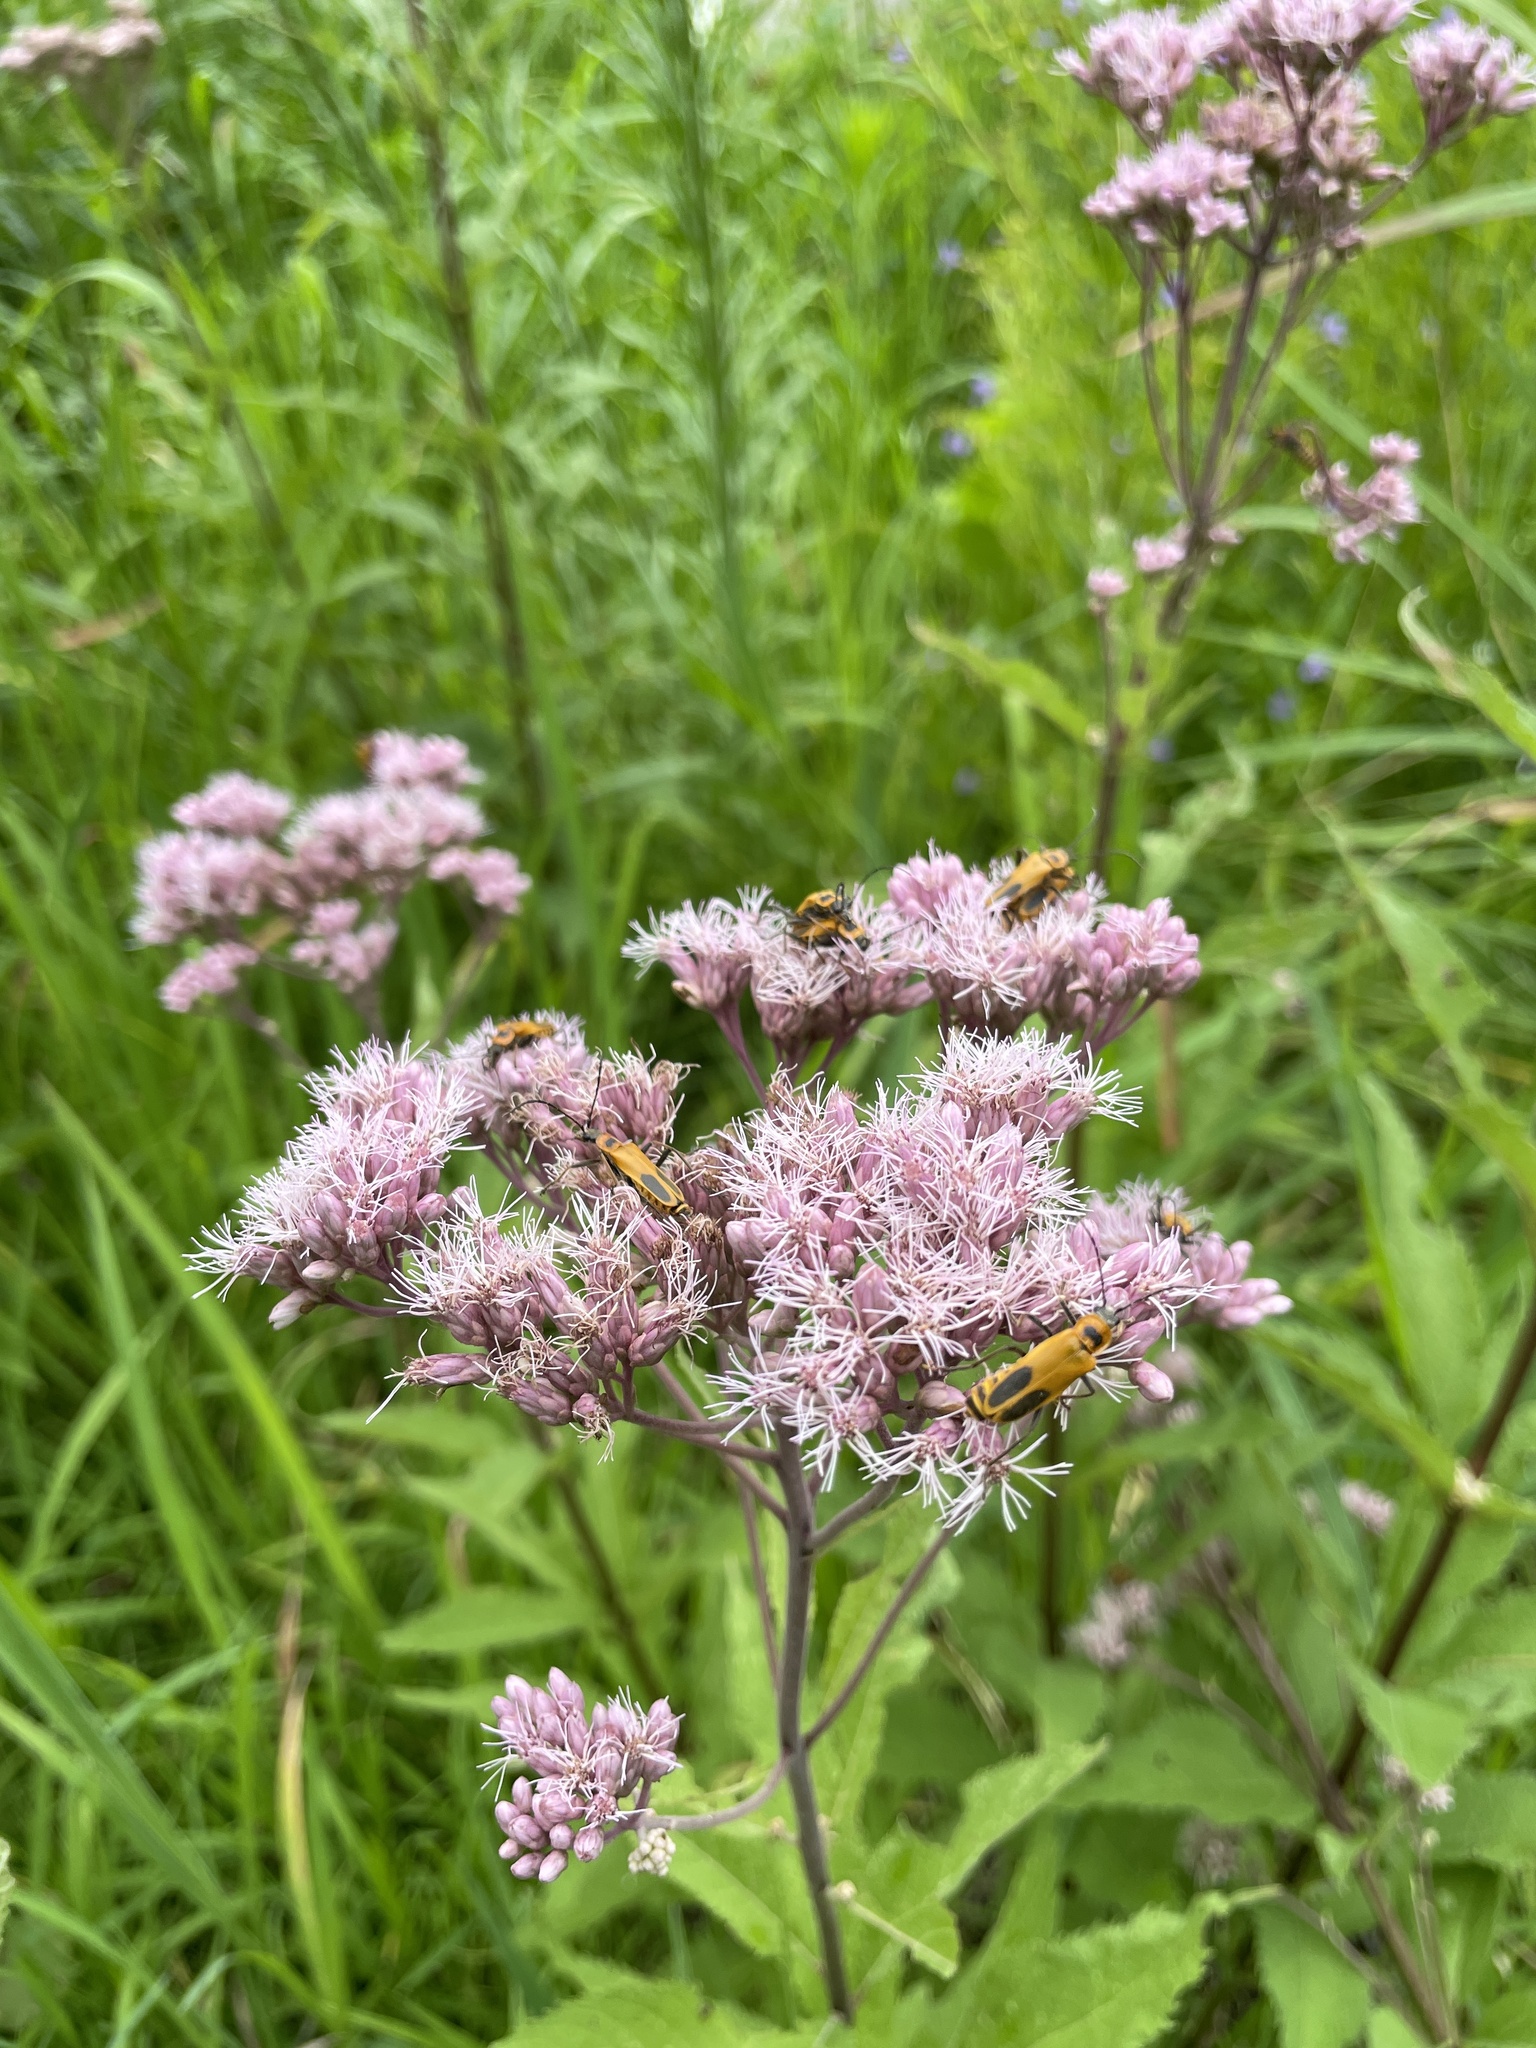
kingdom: Animalia
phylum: Arthropoda
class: Insecta
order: Coleoptera
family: Cantharidae
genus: Chauliognathus
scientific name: Chauliognathus pensylvanicus
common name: Goldenrod soldier beetle
